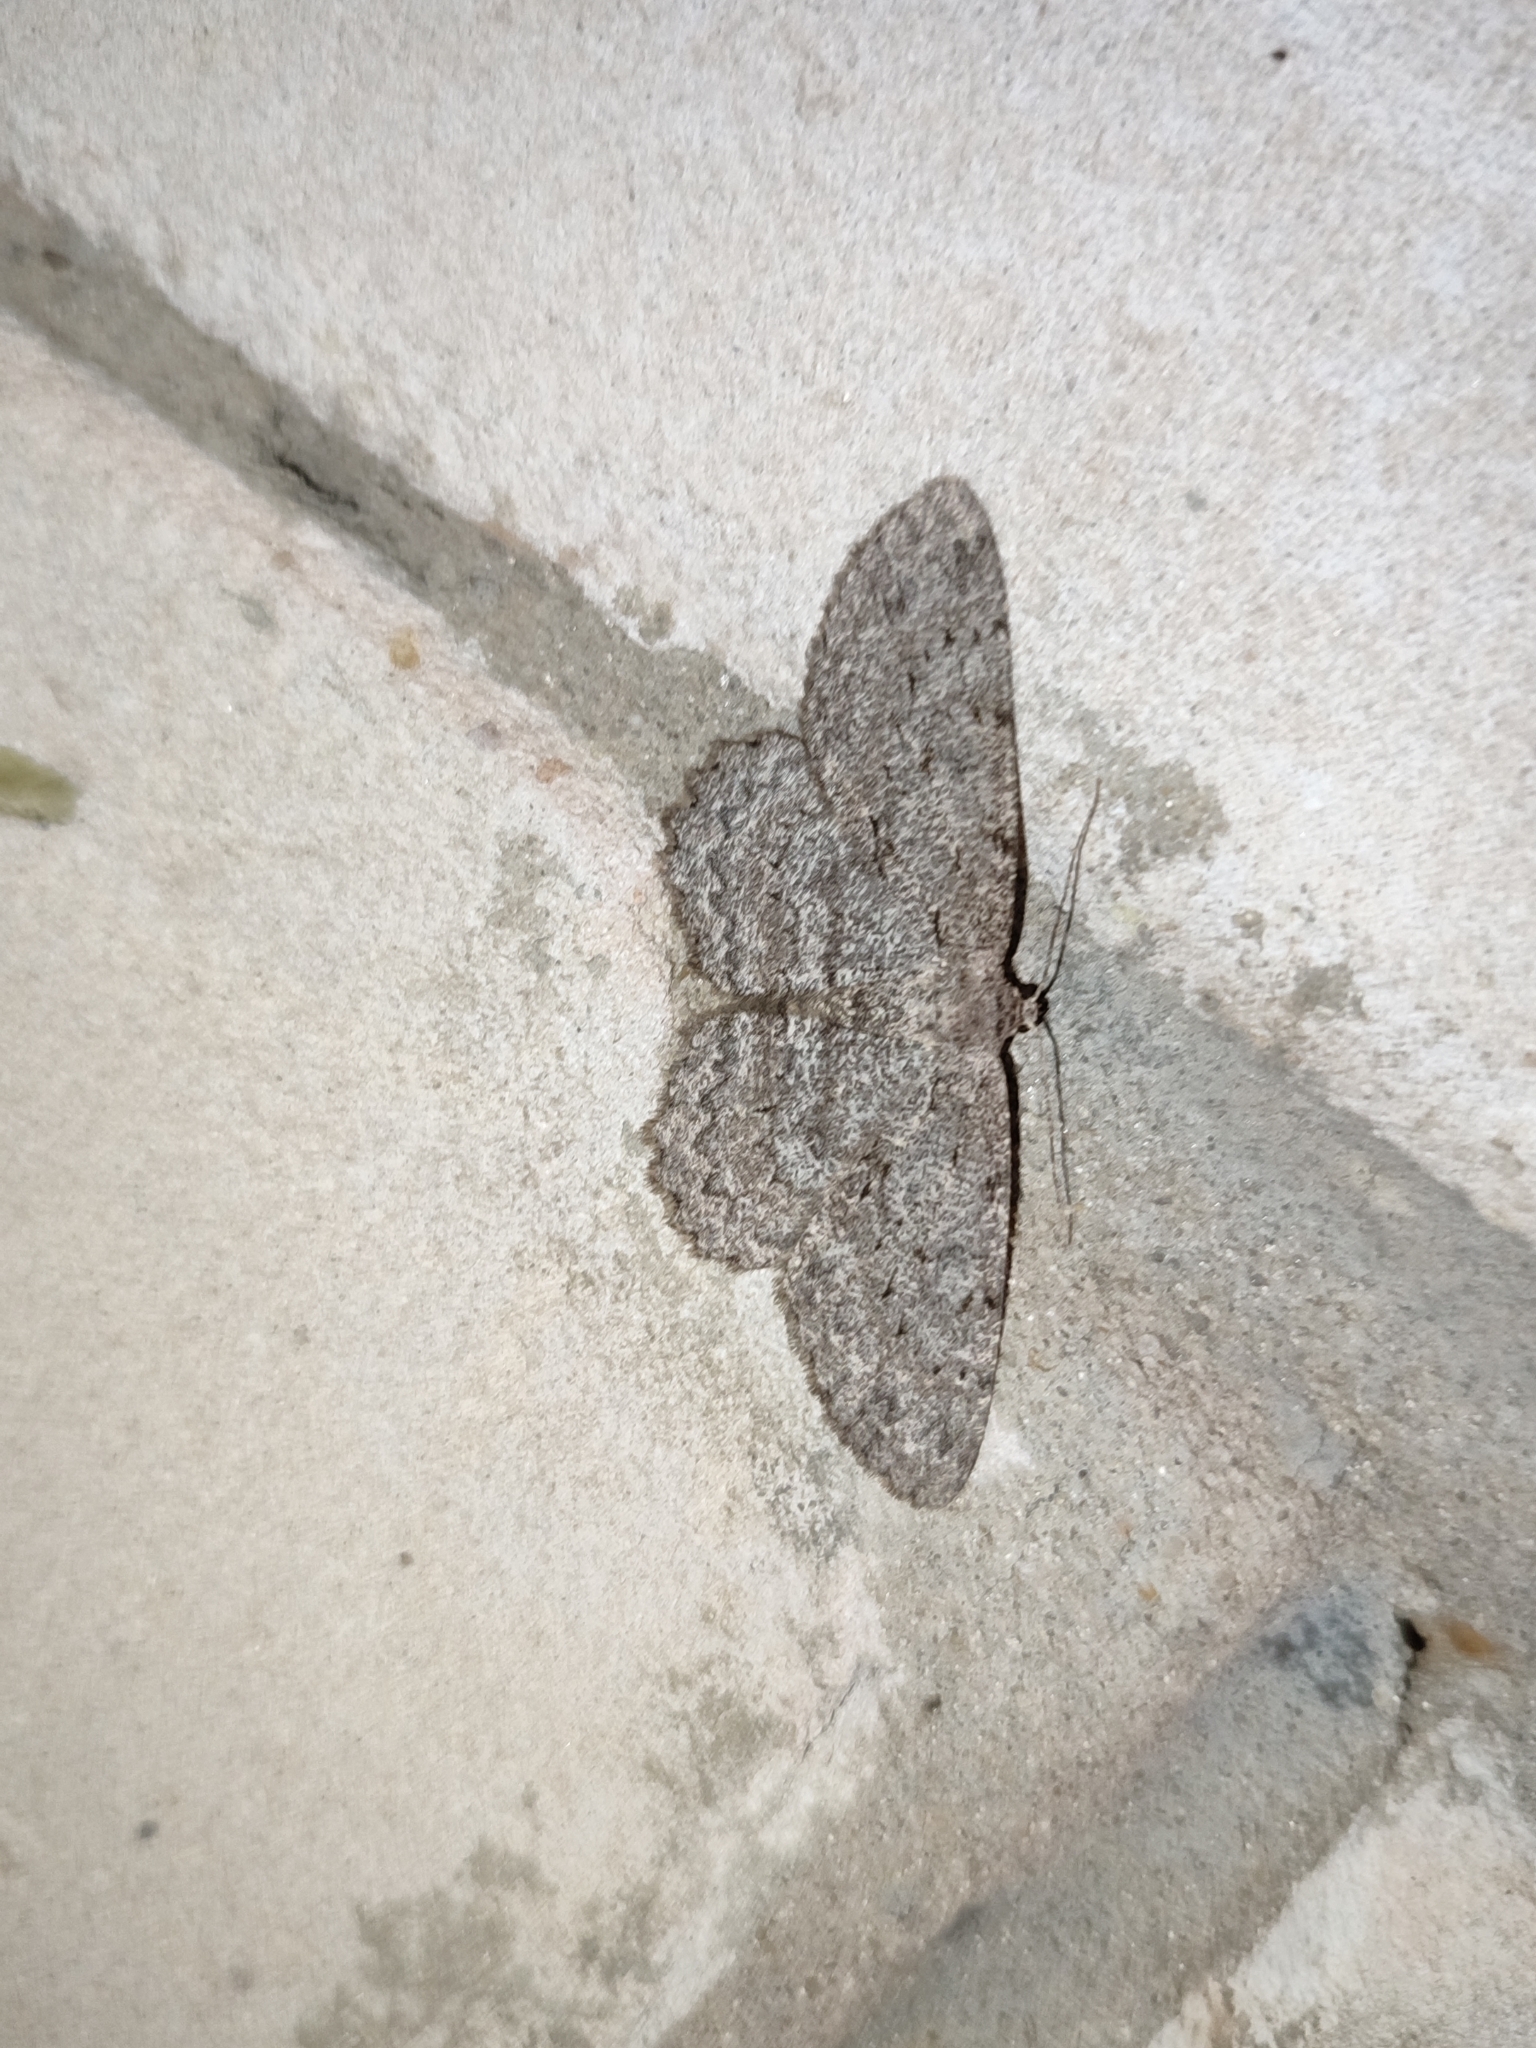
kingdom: Animalia
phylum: Arthropoda
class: Insecta
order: Lepidoptera
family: Geometridae
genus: Hypomecis
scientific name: Hypomecis punctinalis
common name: Pale oak beauty
